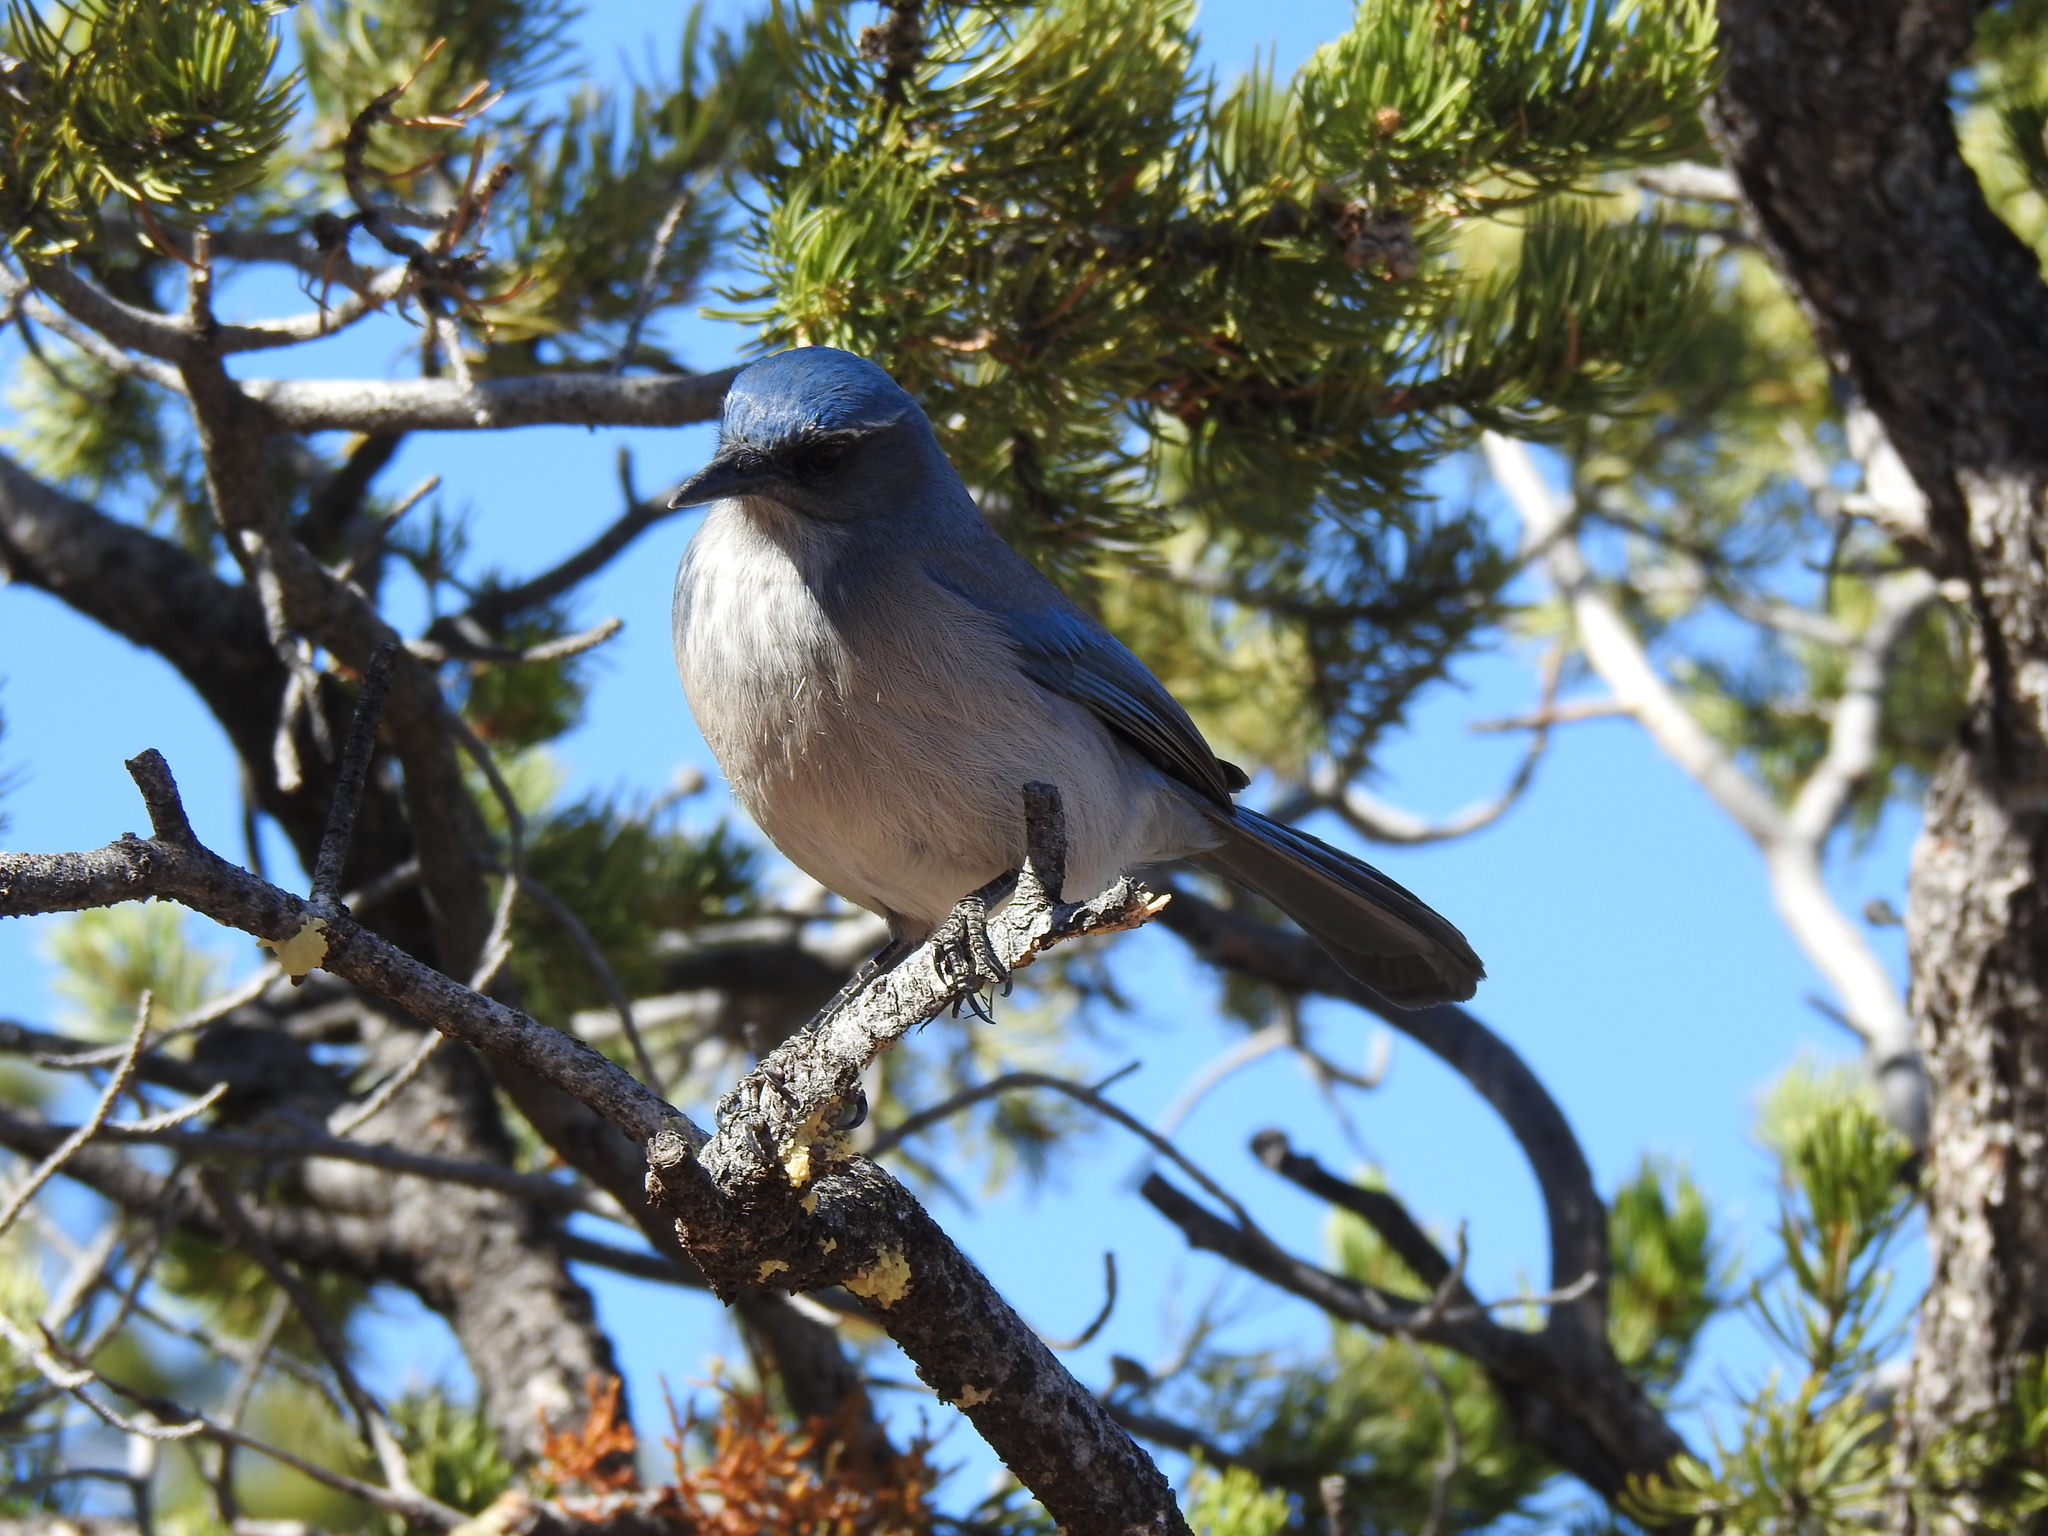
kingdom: Animalia
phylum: Chordata
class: Aves
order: Passeriformes
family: Corvidae
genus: Aphelocoma
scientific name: Aphelocoma woodhouseii
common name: Woodhouse's scrub-jay
